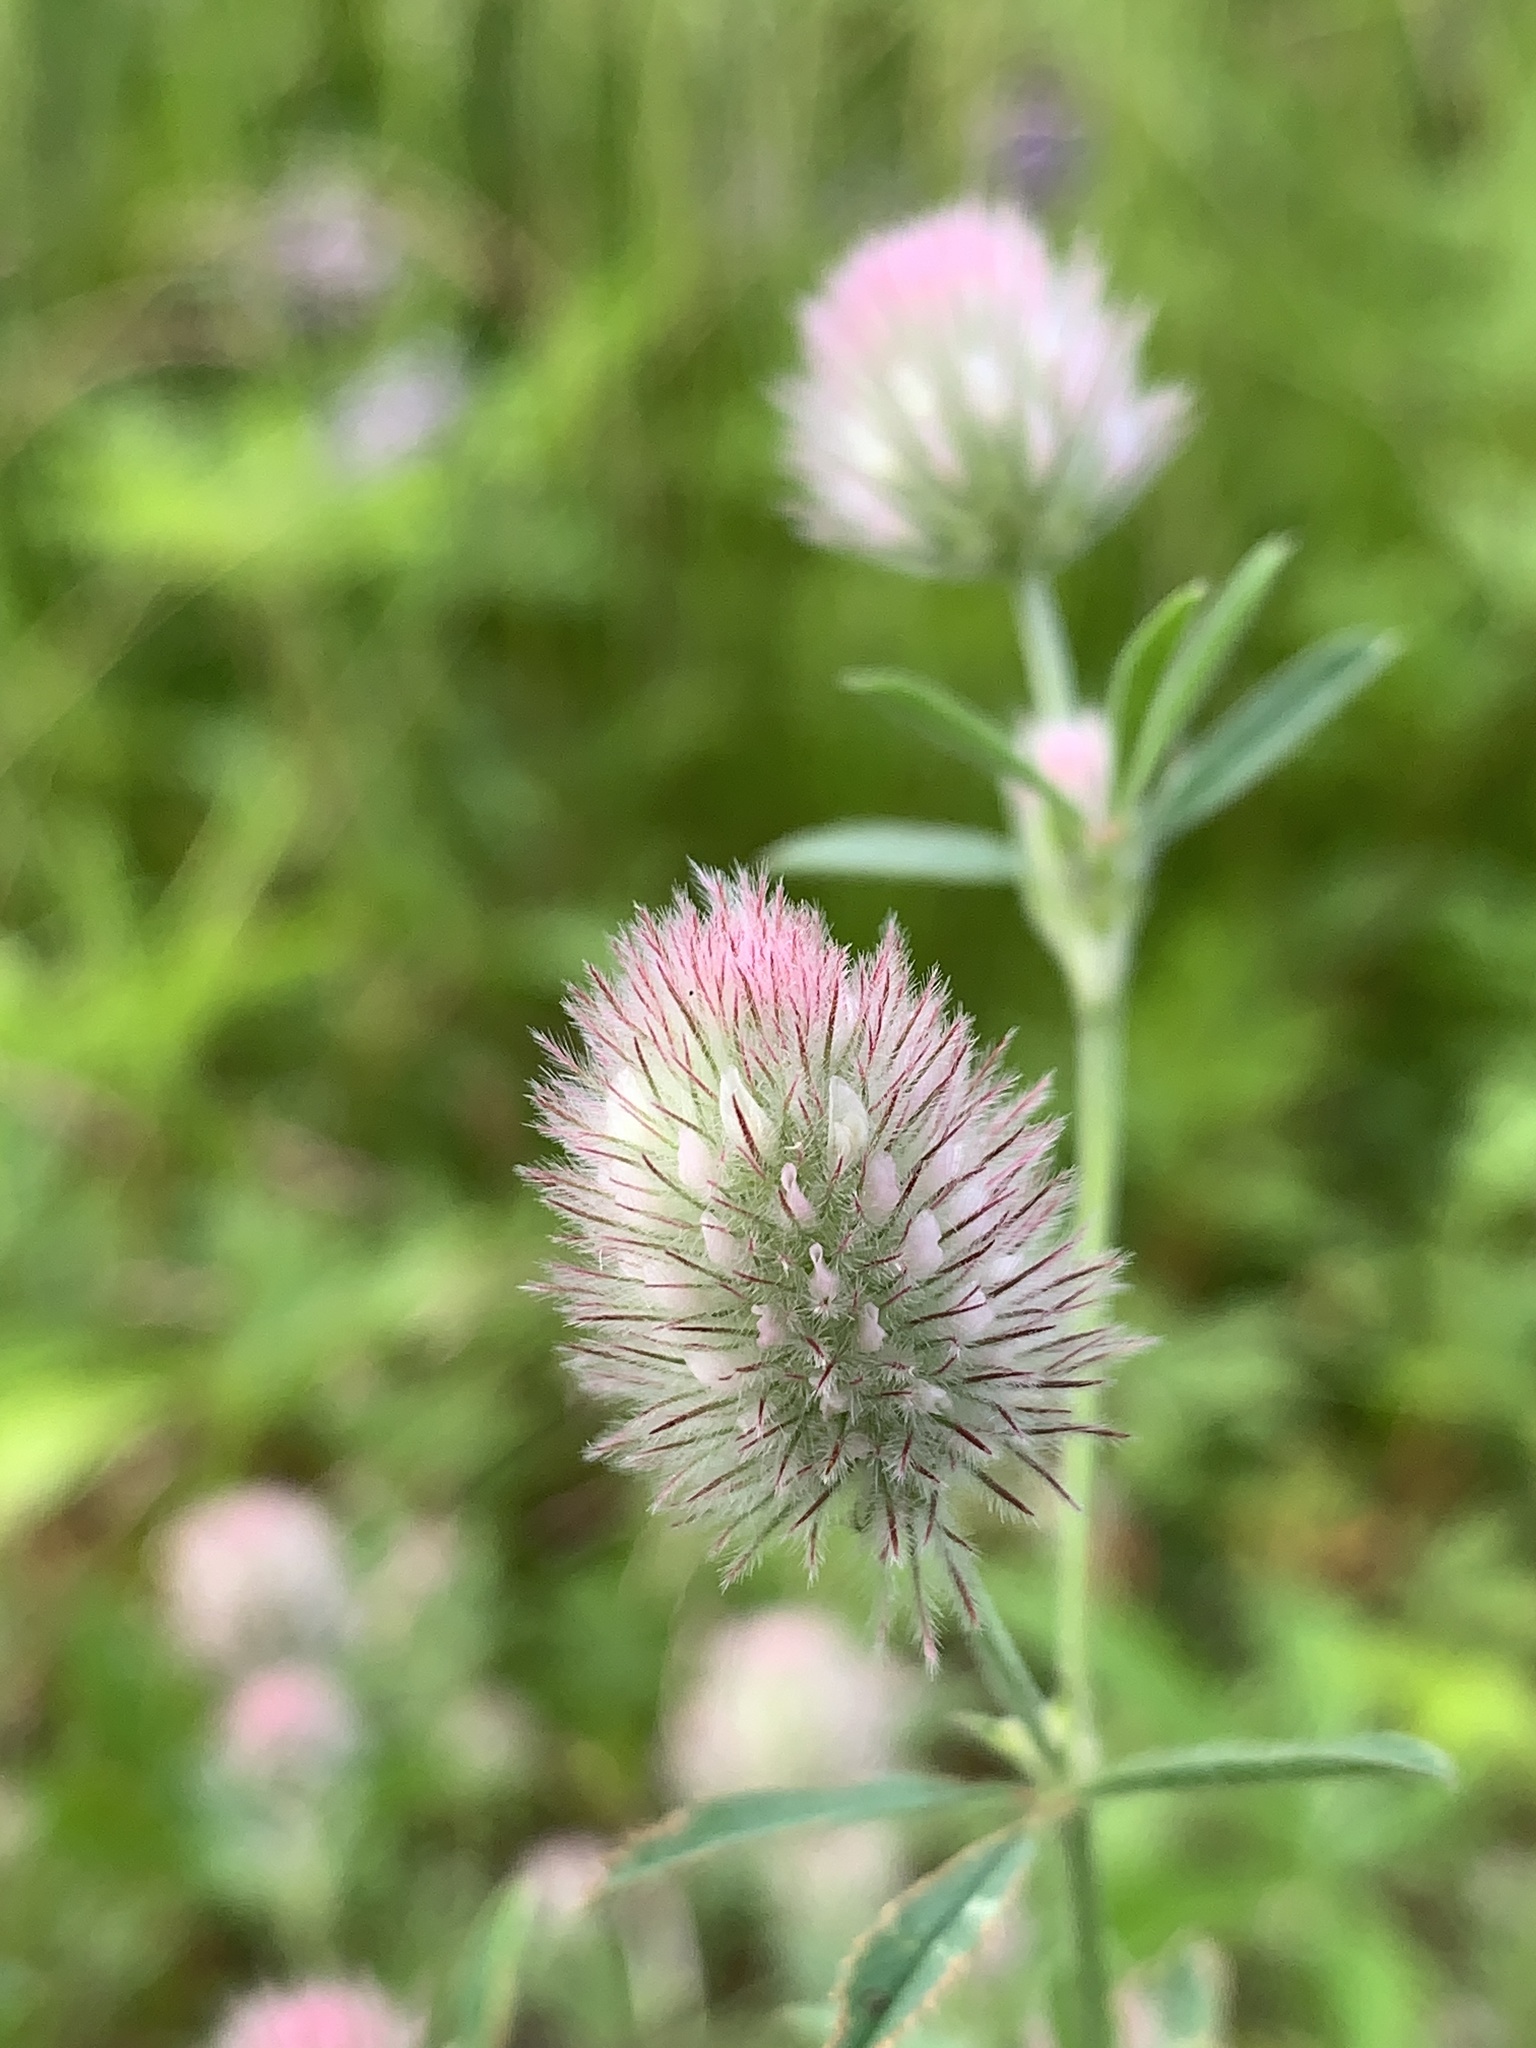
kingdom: Plantae
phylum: Tracheophyta
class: Magnoliopsida
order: Fabales
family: Fabaceae
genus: Trifolium
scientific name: Trifolium arvense
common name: Hare's-foot clover
